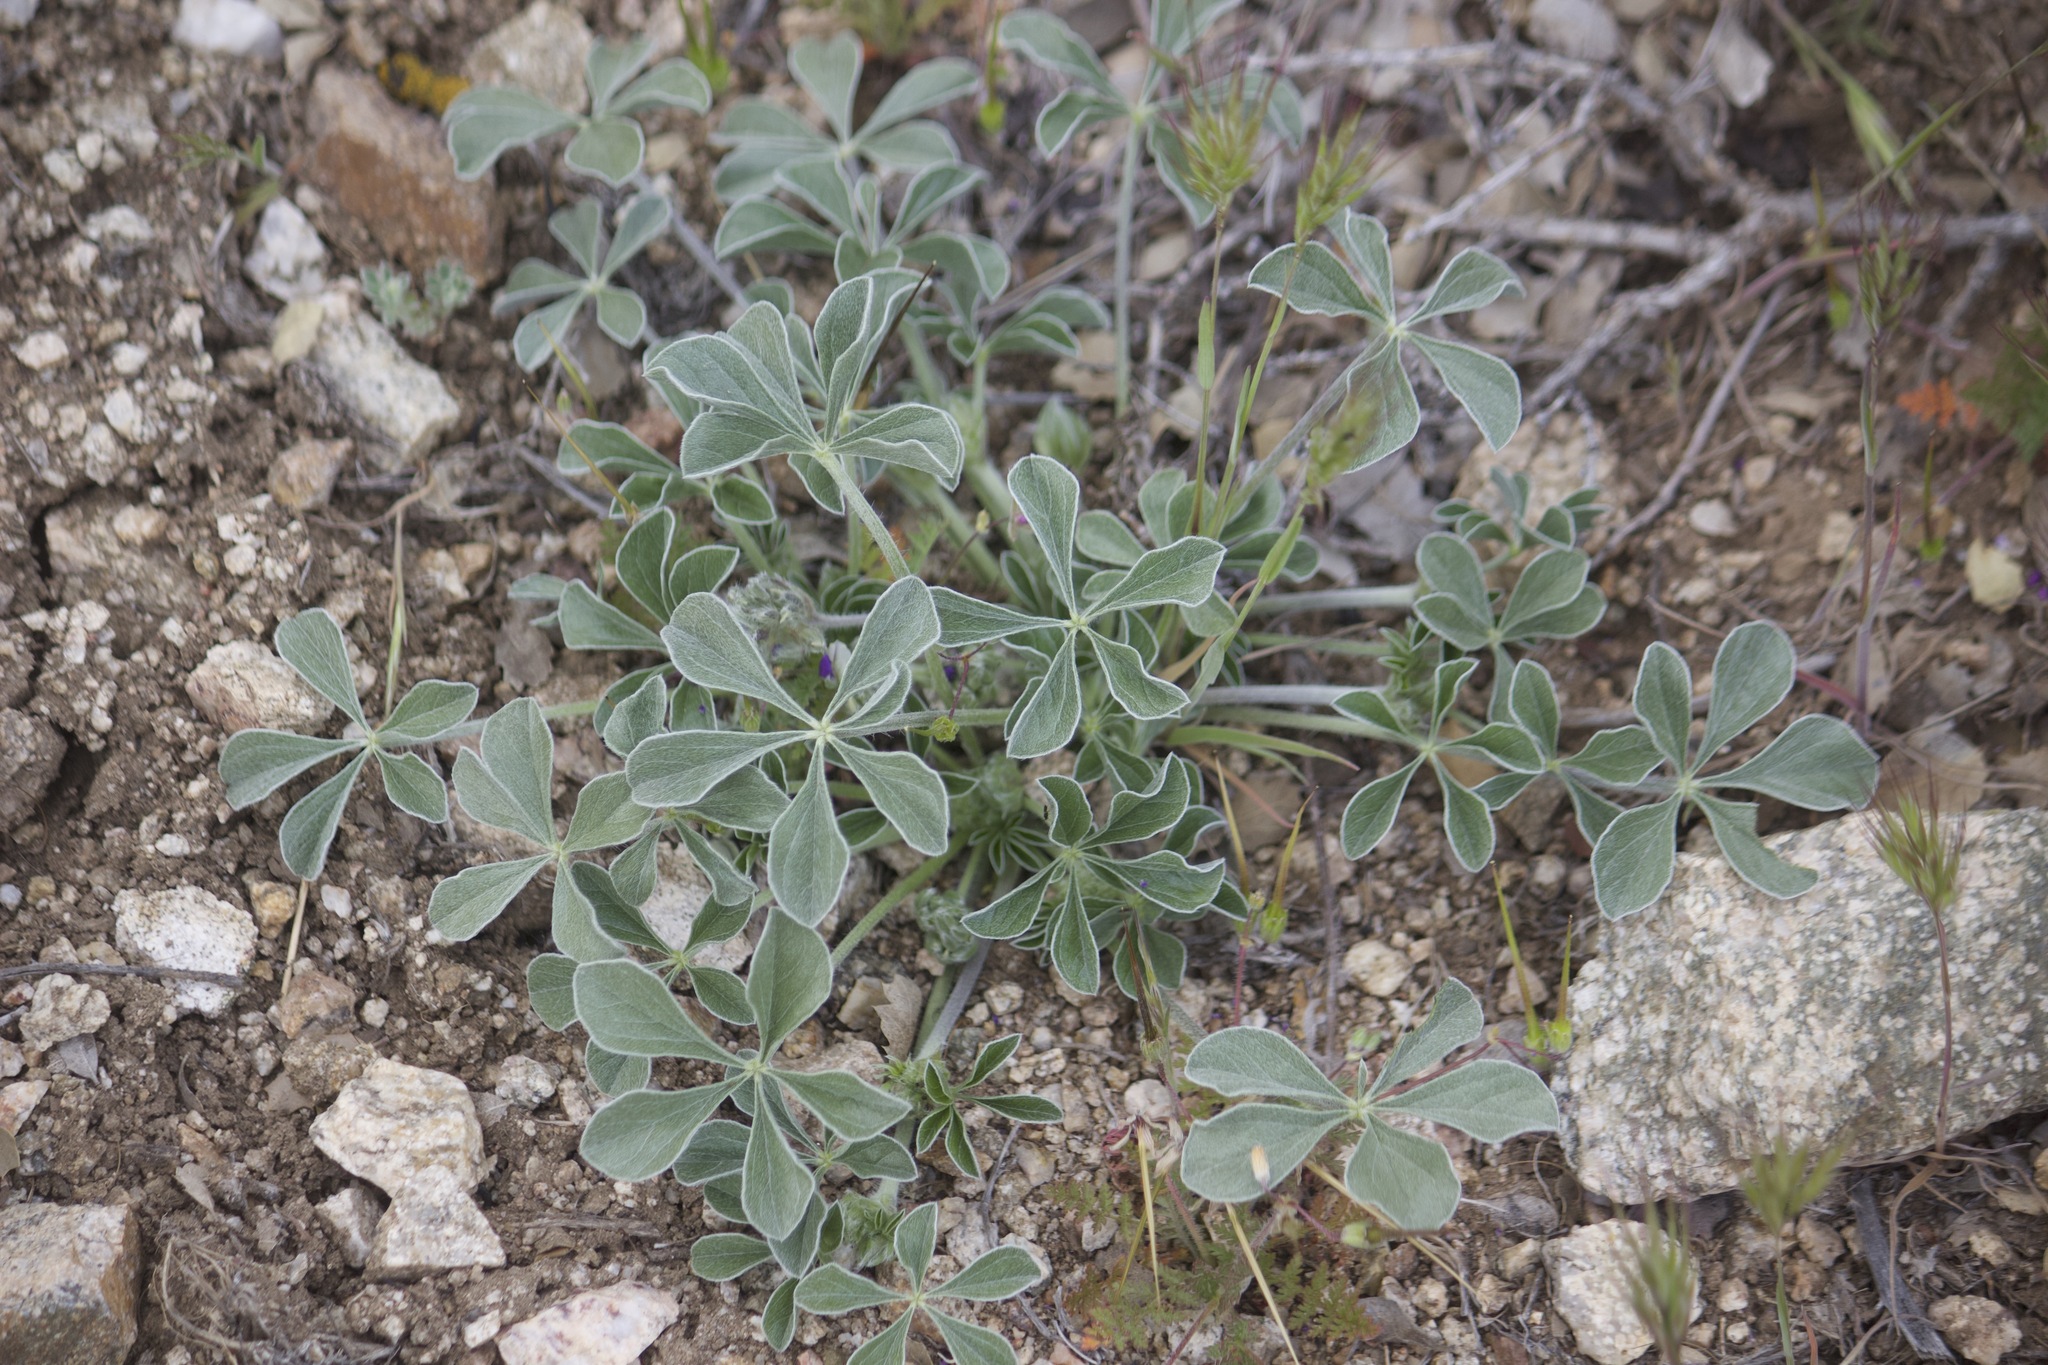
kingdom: Plantae
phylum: Tracheophyta
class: Magnoliopsida
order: Fabales
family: Fabaceae
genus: Pediomelum
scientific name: Pediomelum californicum
